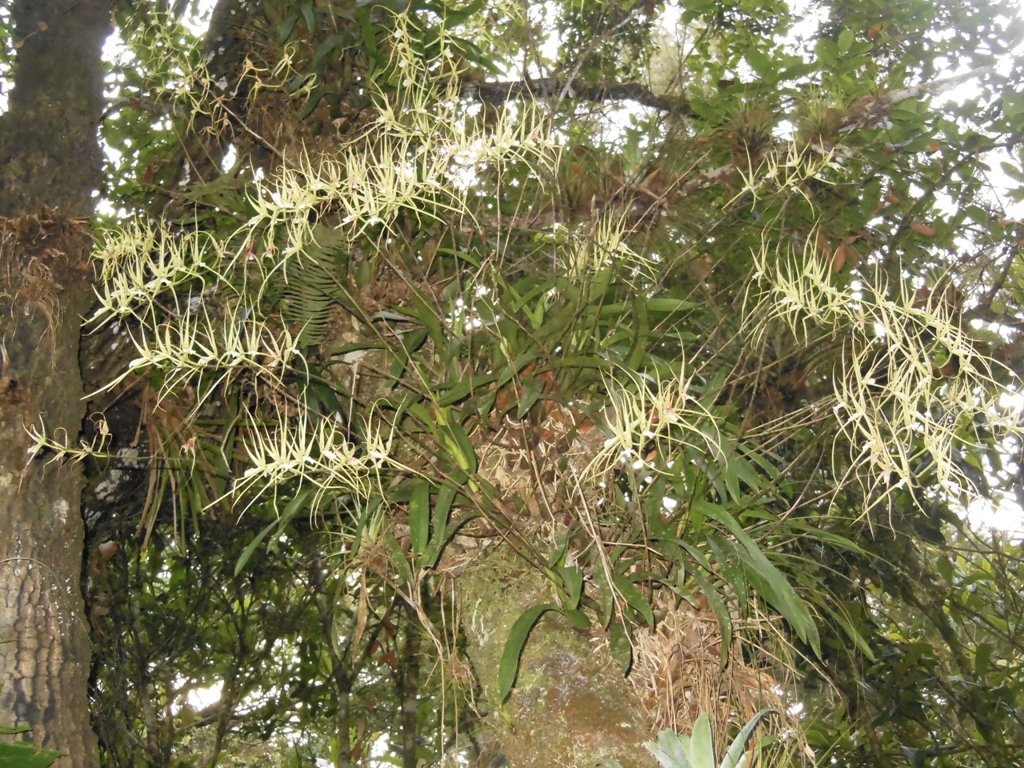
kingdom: Plantae
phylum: Tracheophyta
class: Liliopsida
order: Asparagales
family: Orchidaceae
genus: Brassia
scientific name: Brassia verrucosa
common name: Warty brassia
